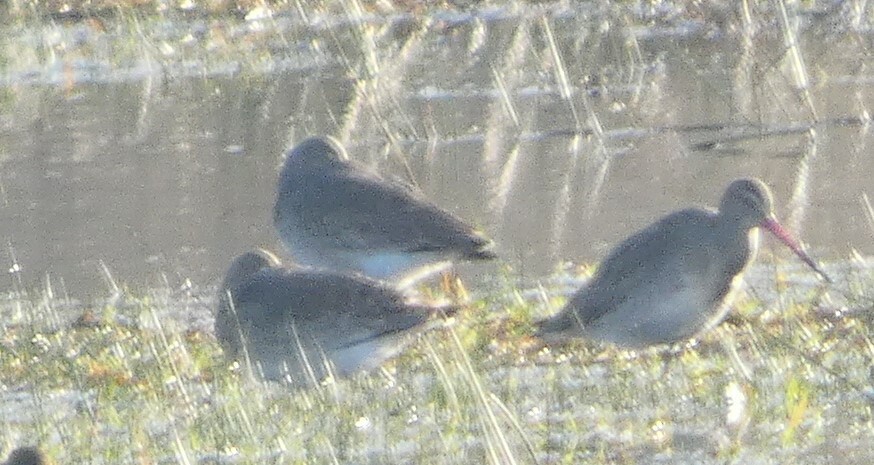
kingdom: Animalia
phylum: Chordata
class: Aves
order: Charadriiformes
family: Scolopacidae
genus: Limosa
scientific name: Limosa limosa
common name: Black-tailed godwit
